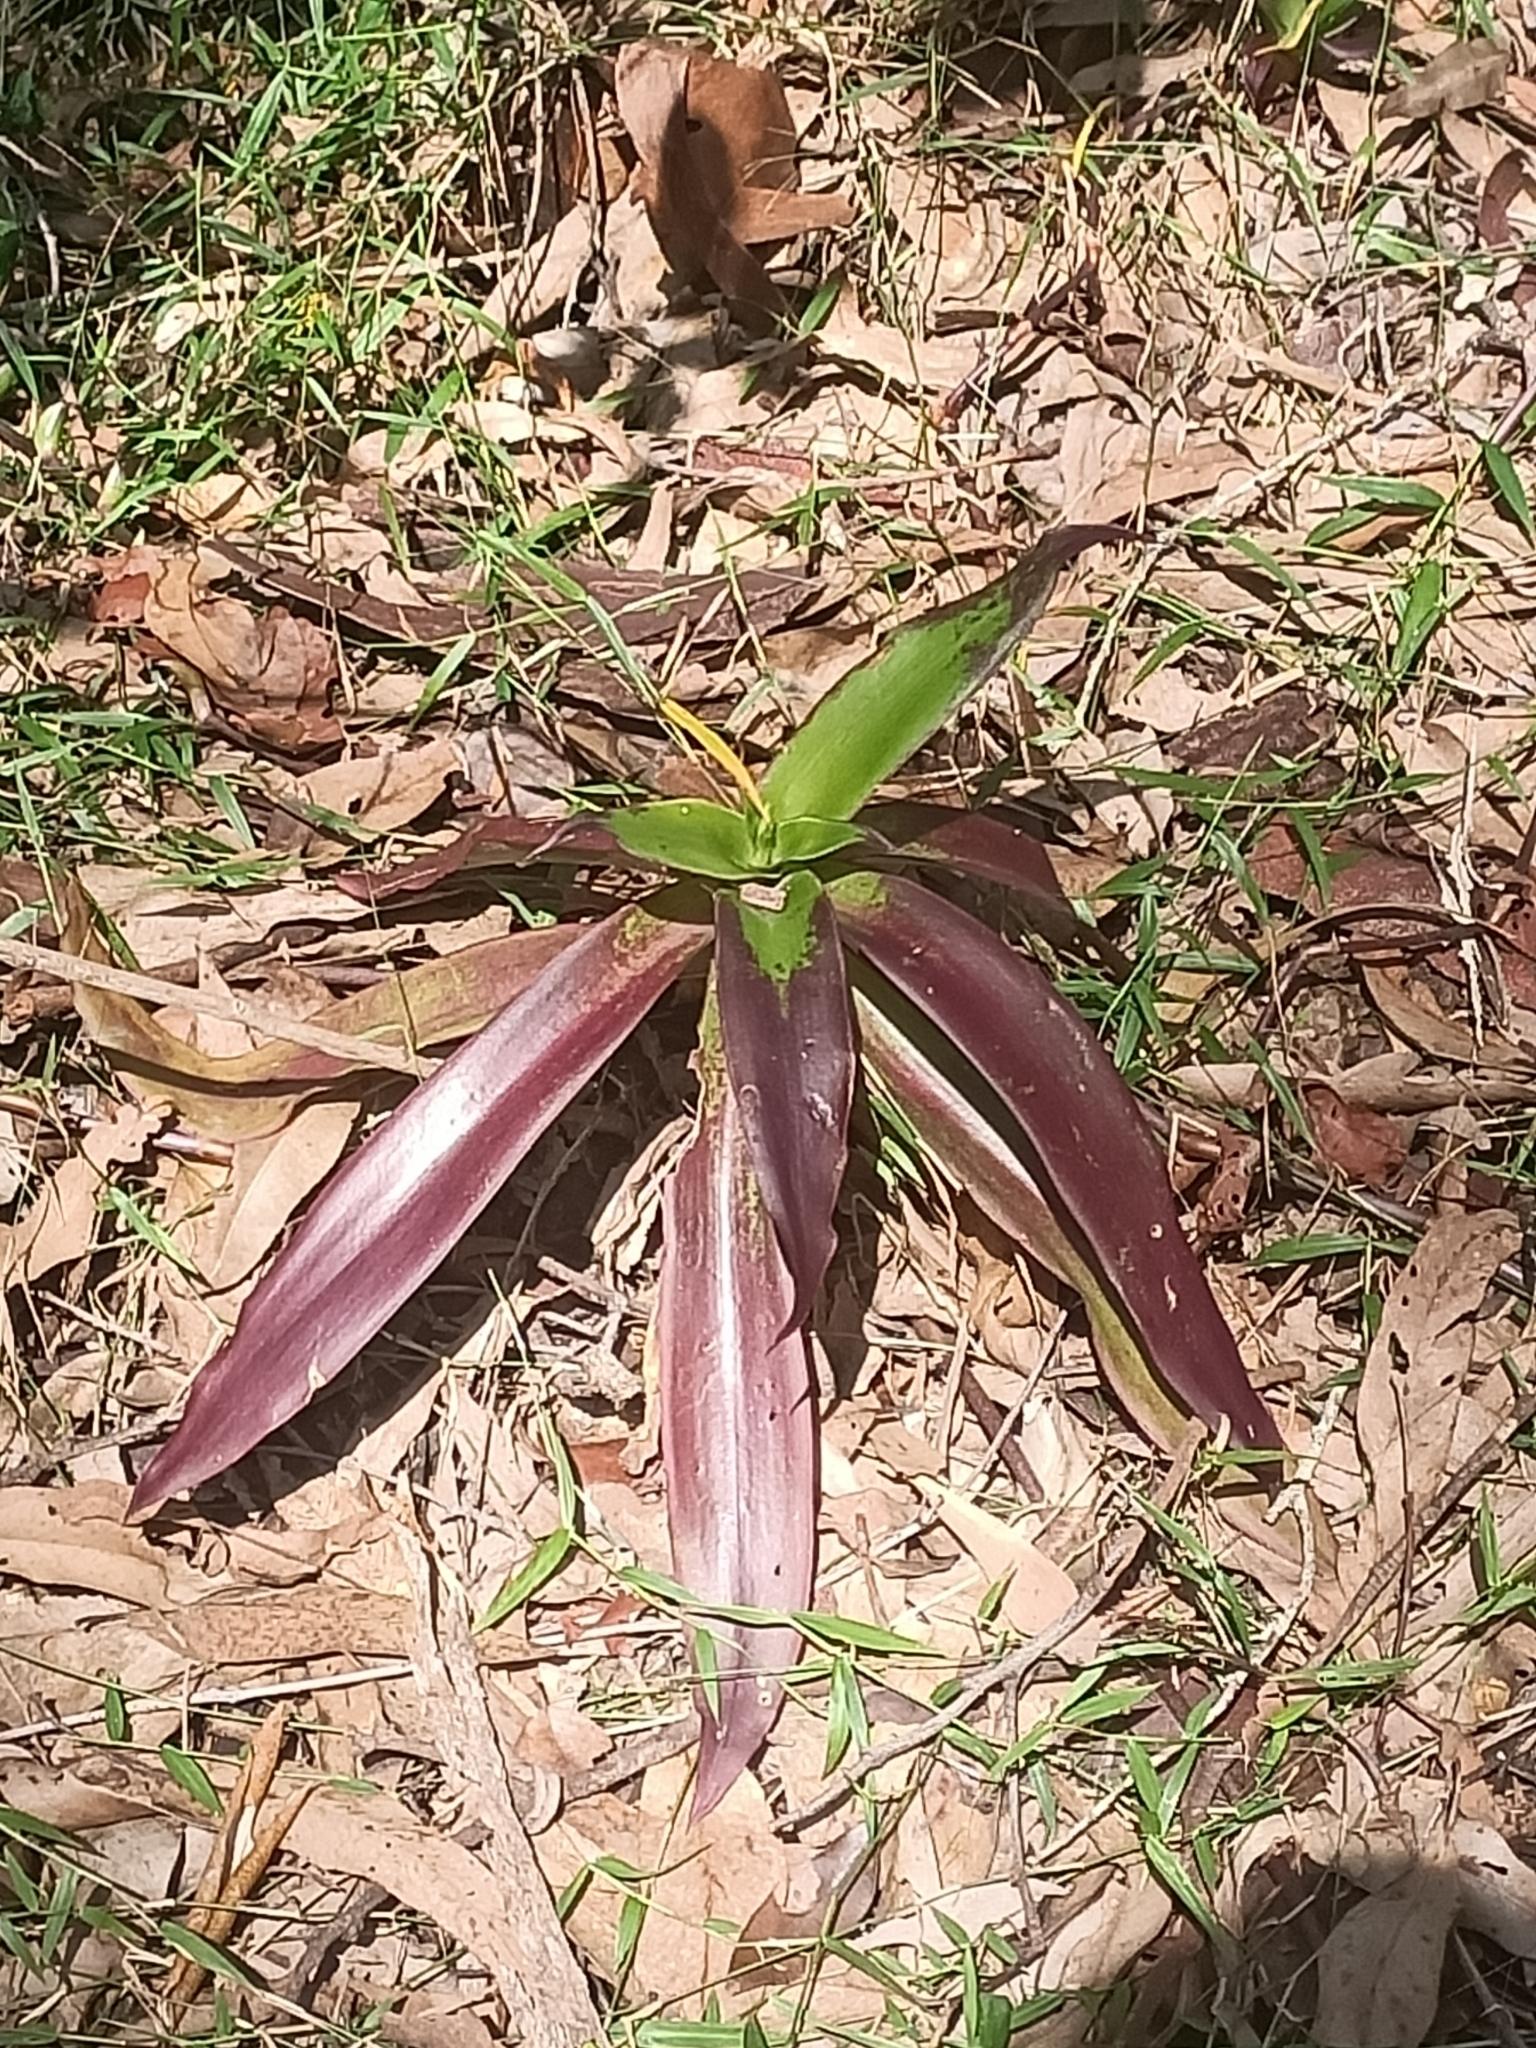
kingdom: Plantae
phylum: Tracheophyta
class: Liliopsida
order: Commelinales
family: Commelinaceae
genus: Callisia
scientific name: Callisia fragrans
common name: Basketplant
